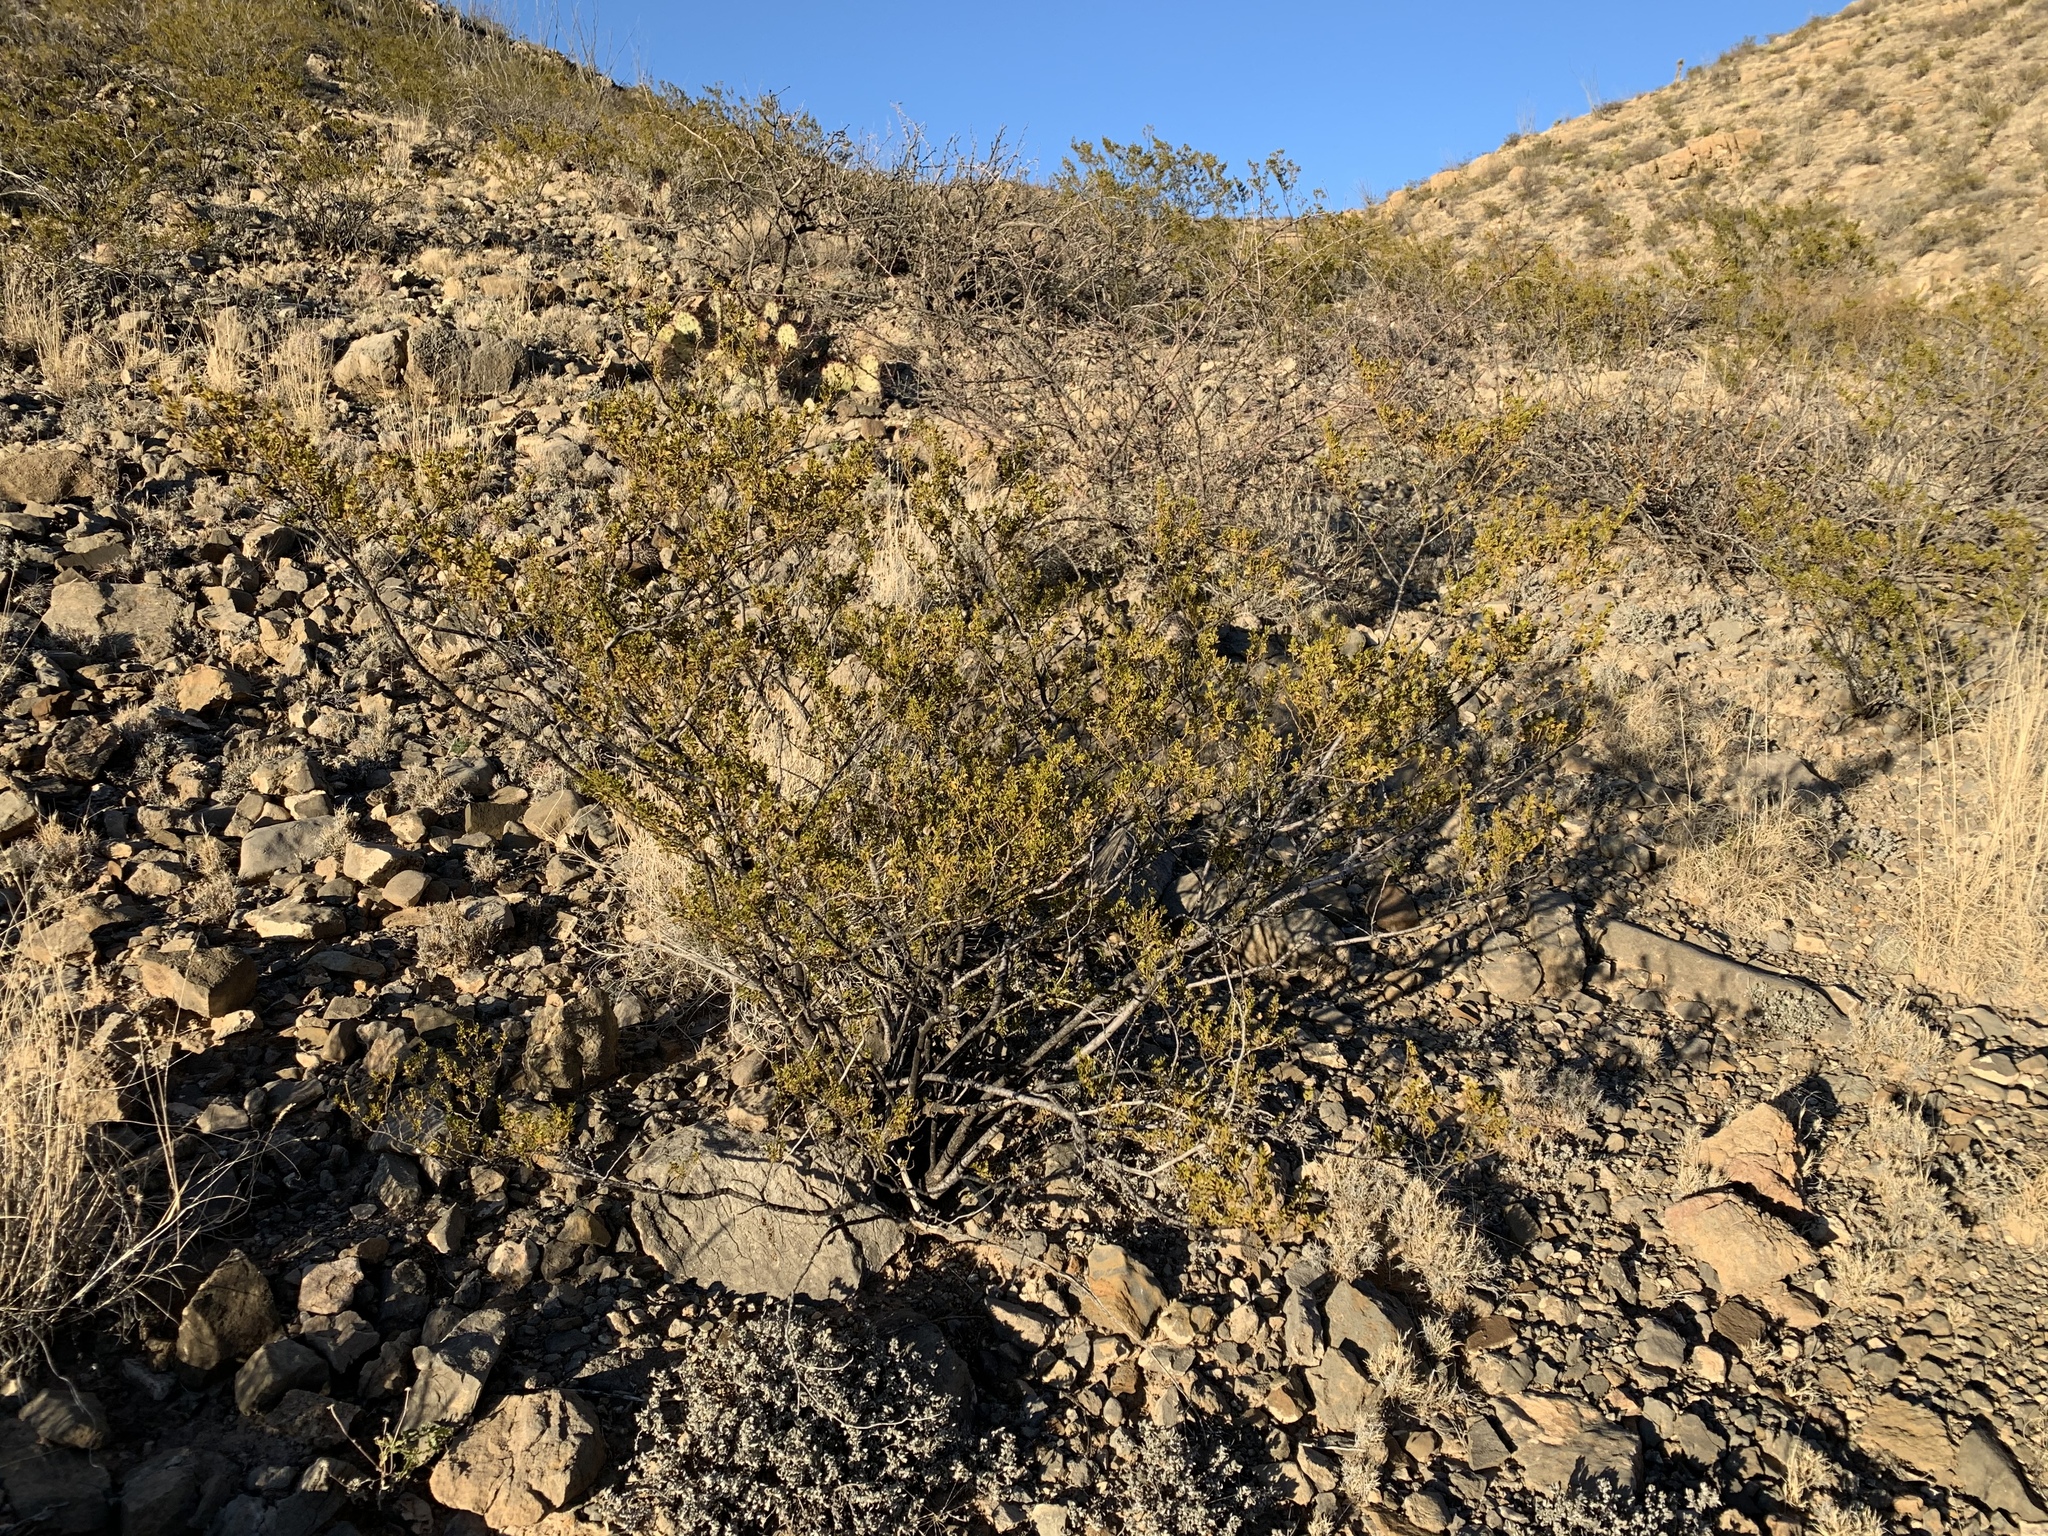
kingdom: Plantae
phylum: Tracheophyta
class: Magnoliopsida
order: Zygophyllales
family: Zygophyllaceae
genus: Larrea
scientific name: Larrea tridentata
